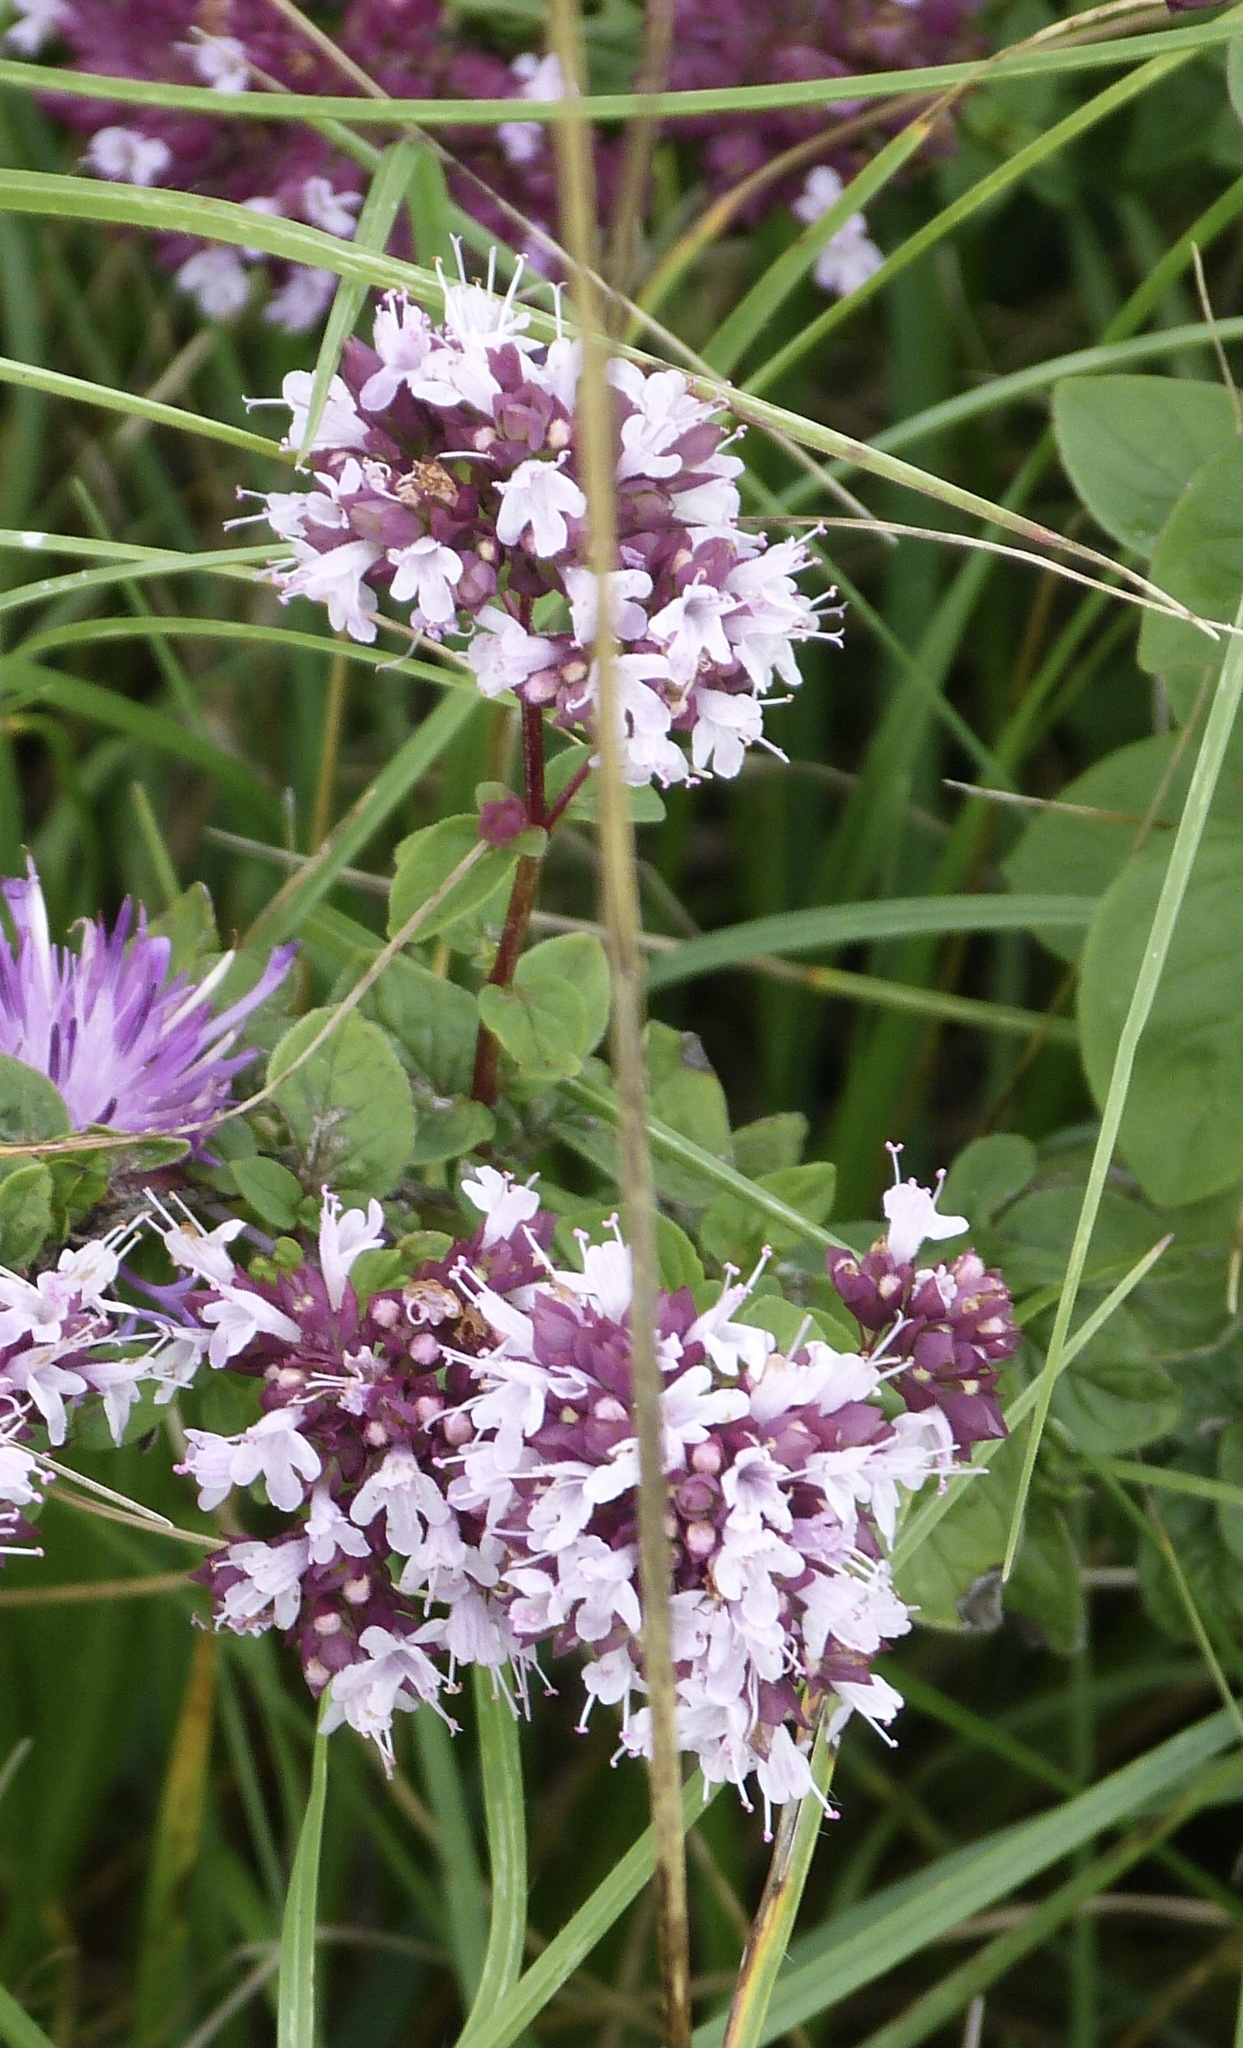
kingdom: Plantae
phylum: Tracheophyta
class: Magnoliopsida
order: Lamiales
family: Lamiaceae
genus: Origanum
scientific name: Origanum vulgare
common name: Wild marjoram
